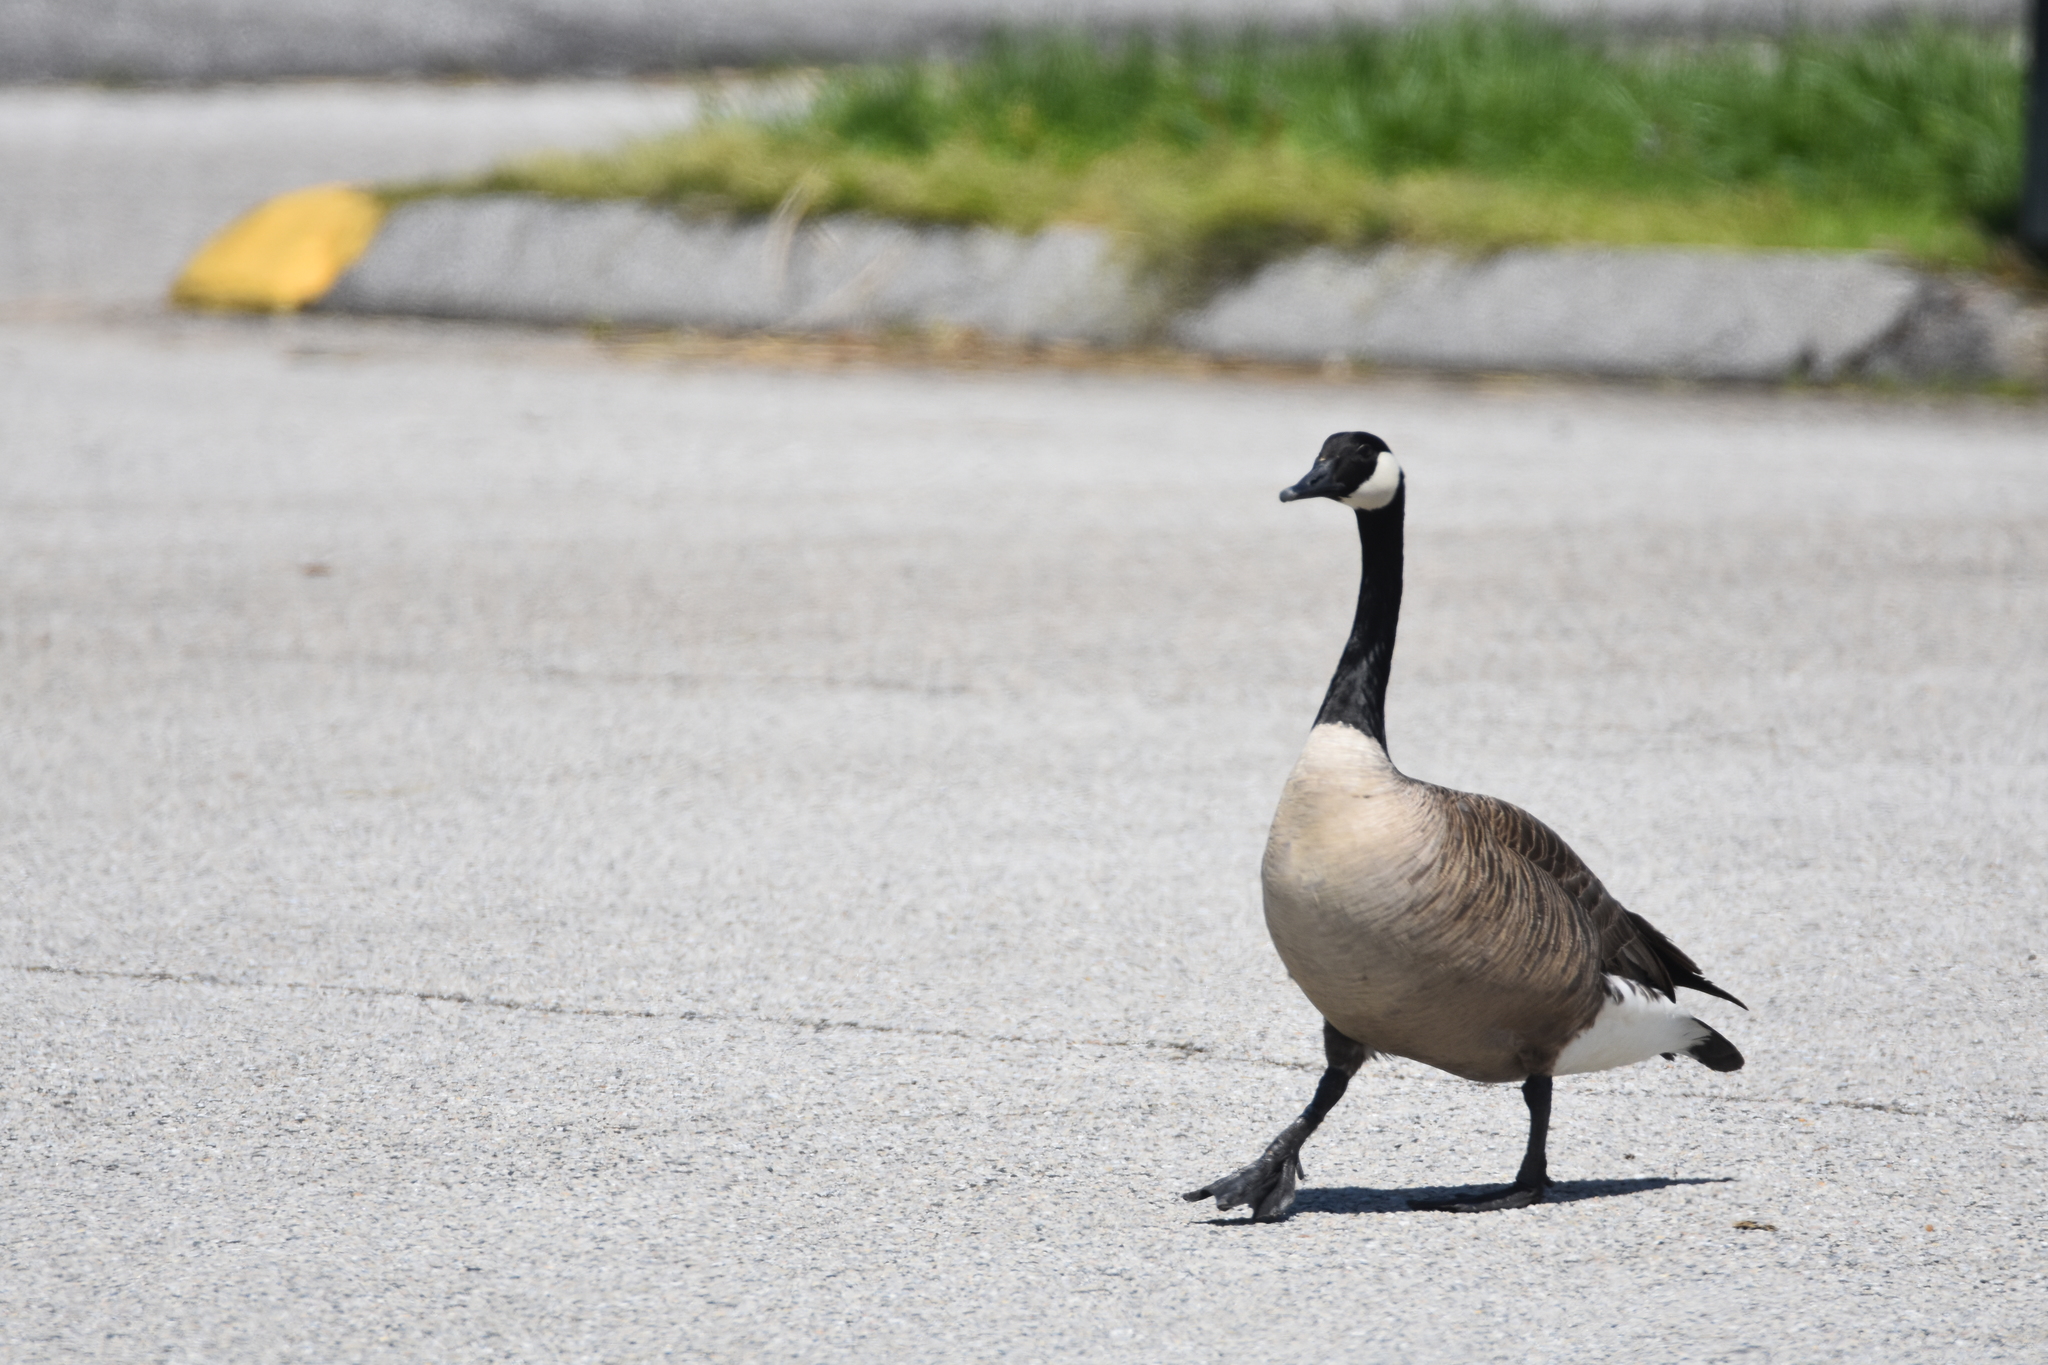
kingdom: Animalia
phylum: Chordata
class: Aves
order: Anseriformes
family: Anatidae
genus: Branta
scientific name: Branta canadensis
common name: Canada goose
